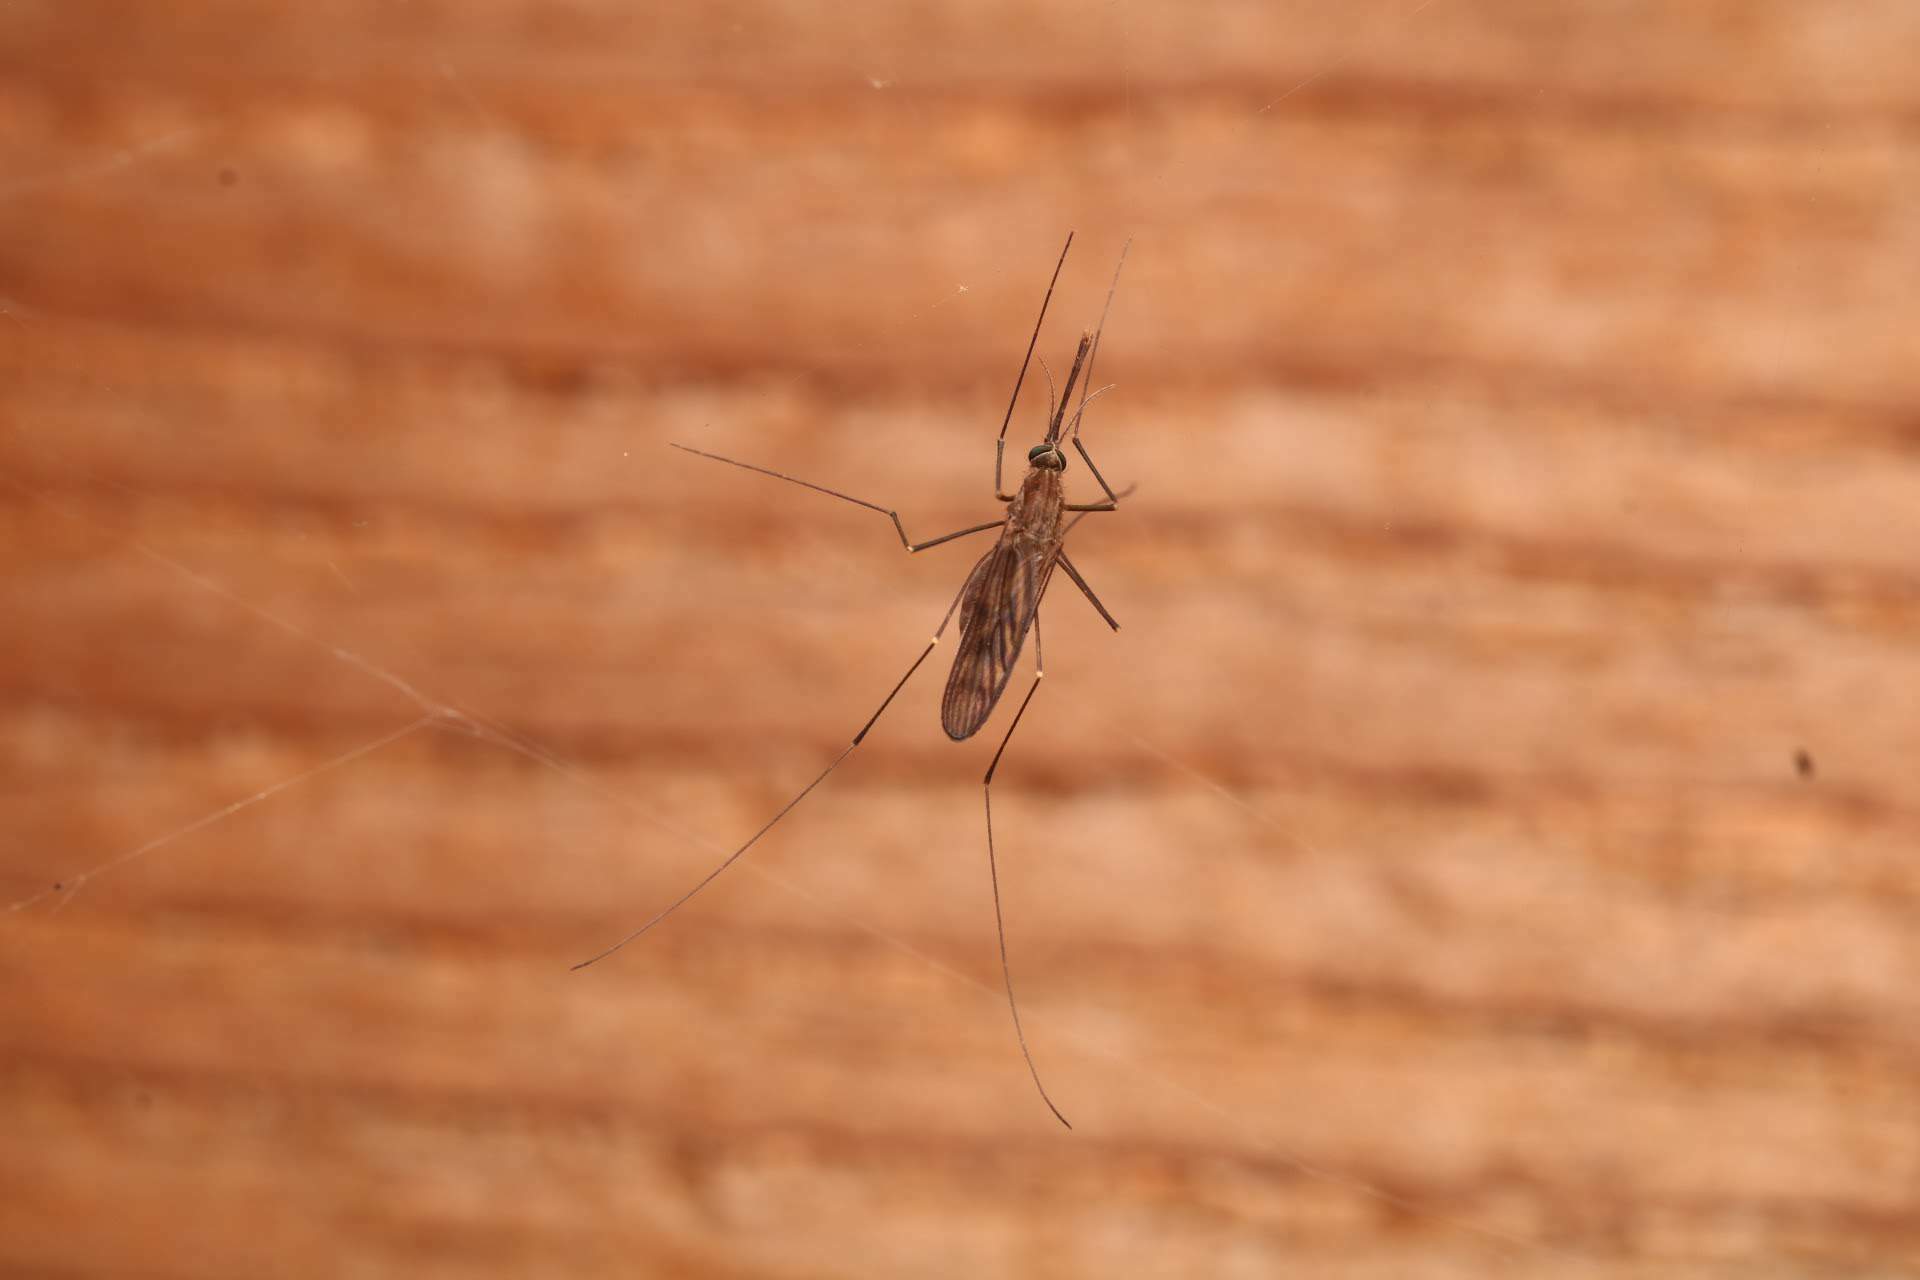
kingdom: Animalia
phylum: Arthropoda
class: Insecta
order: Diptera
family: Culicidae
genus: Anopheles
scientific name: Anopheles quadrimaculatus
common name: Common malaria mosquito
